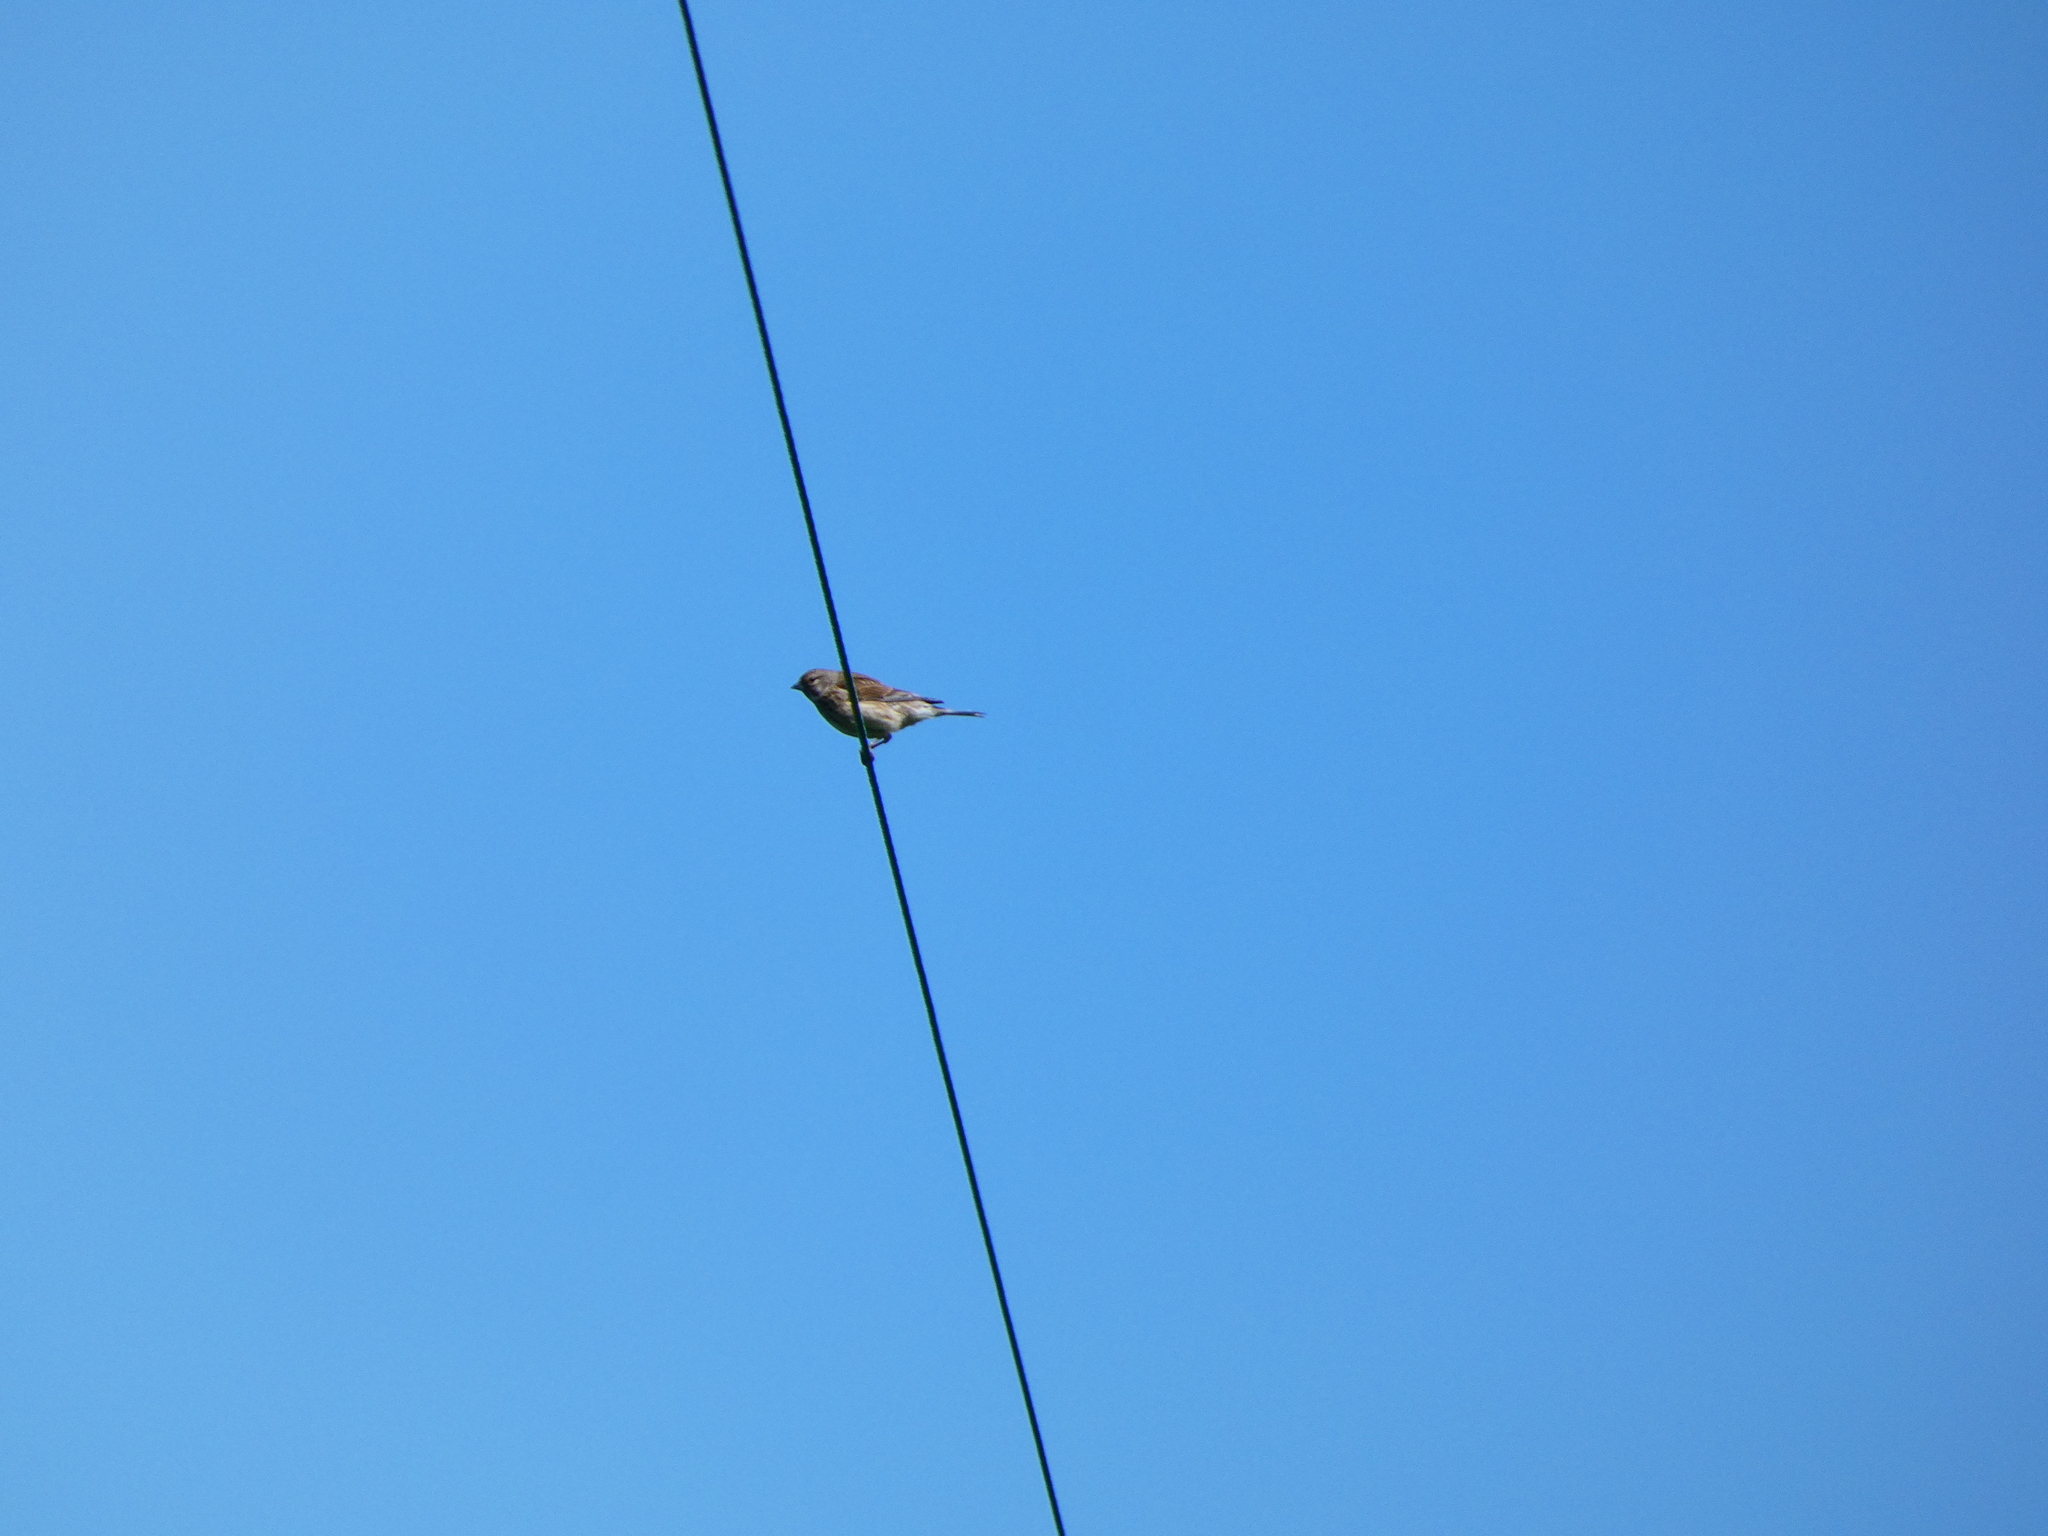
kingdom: Animalia
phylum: Chordata
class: Aves
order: Passeriformes
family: Fringillidae
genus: Linaria
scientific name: Linaria cannabina
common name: Common linnet
